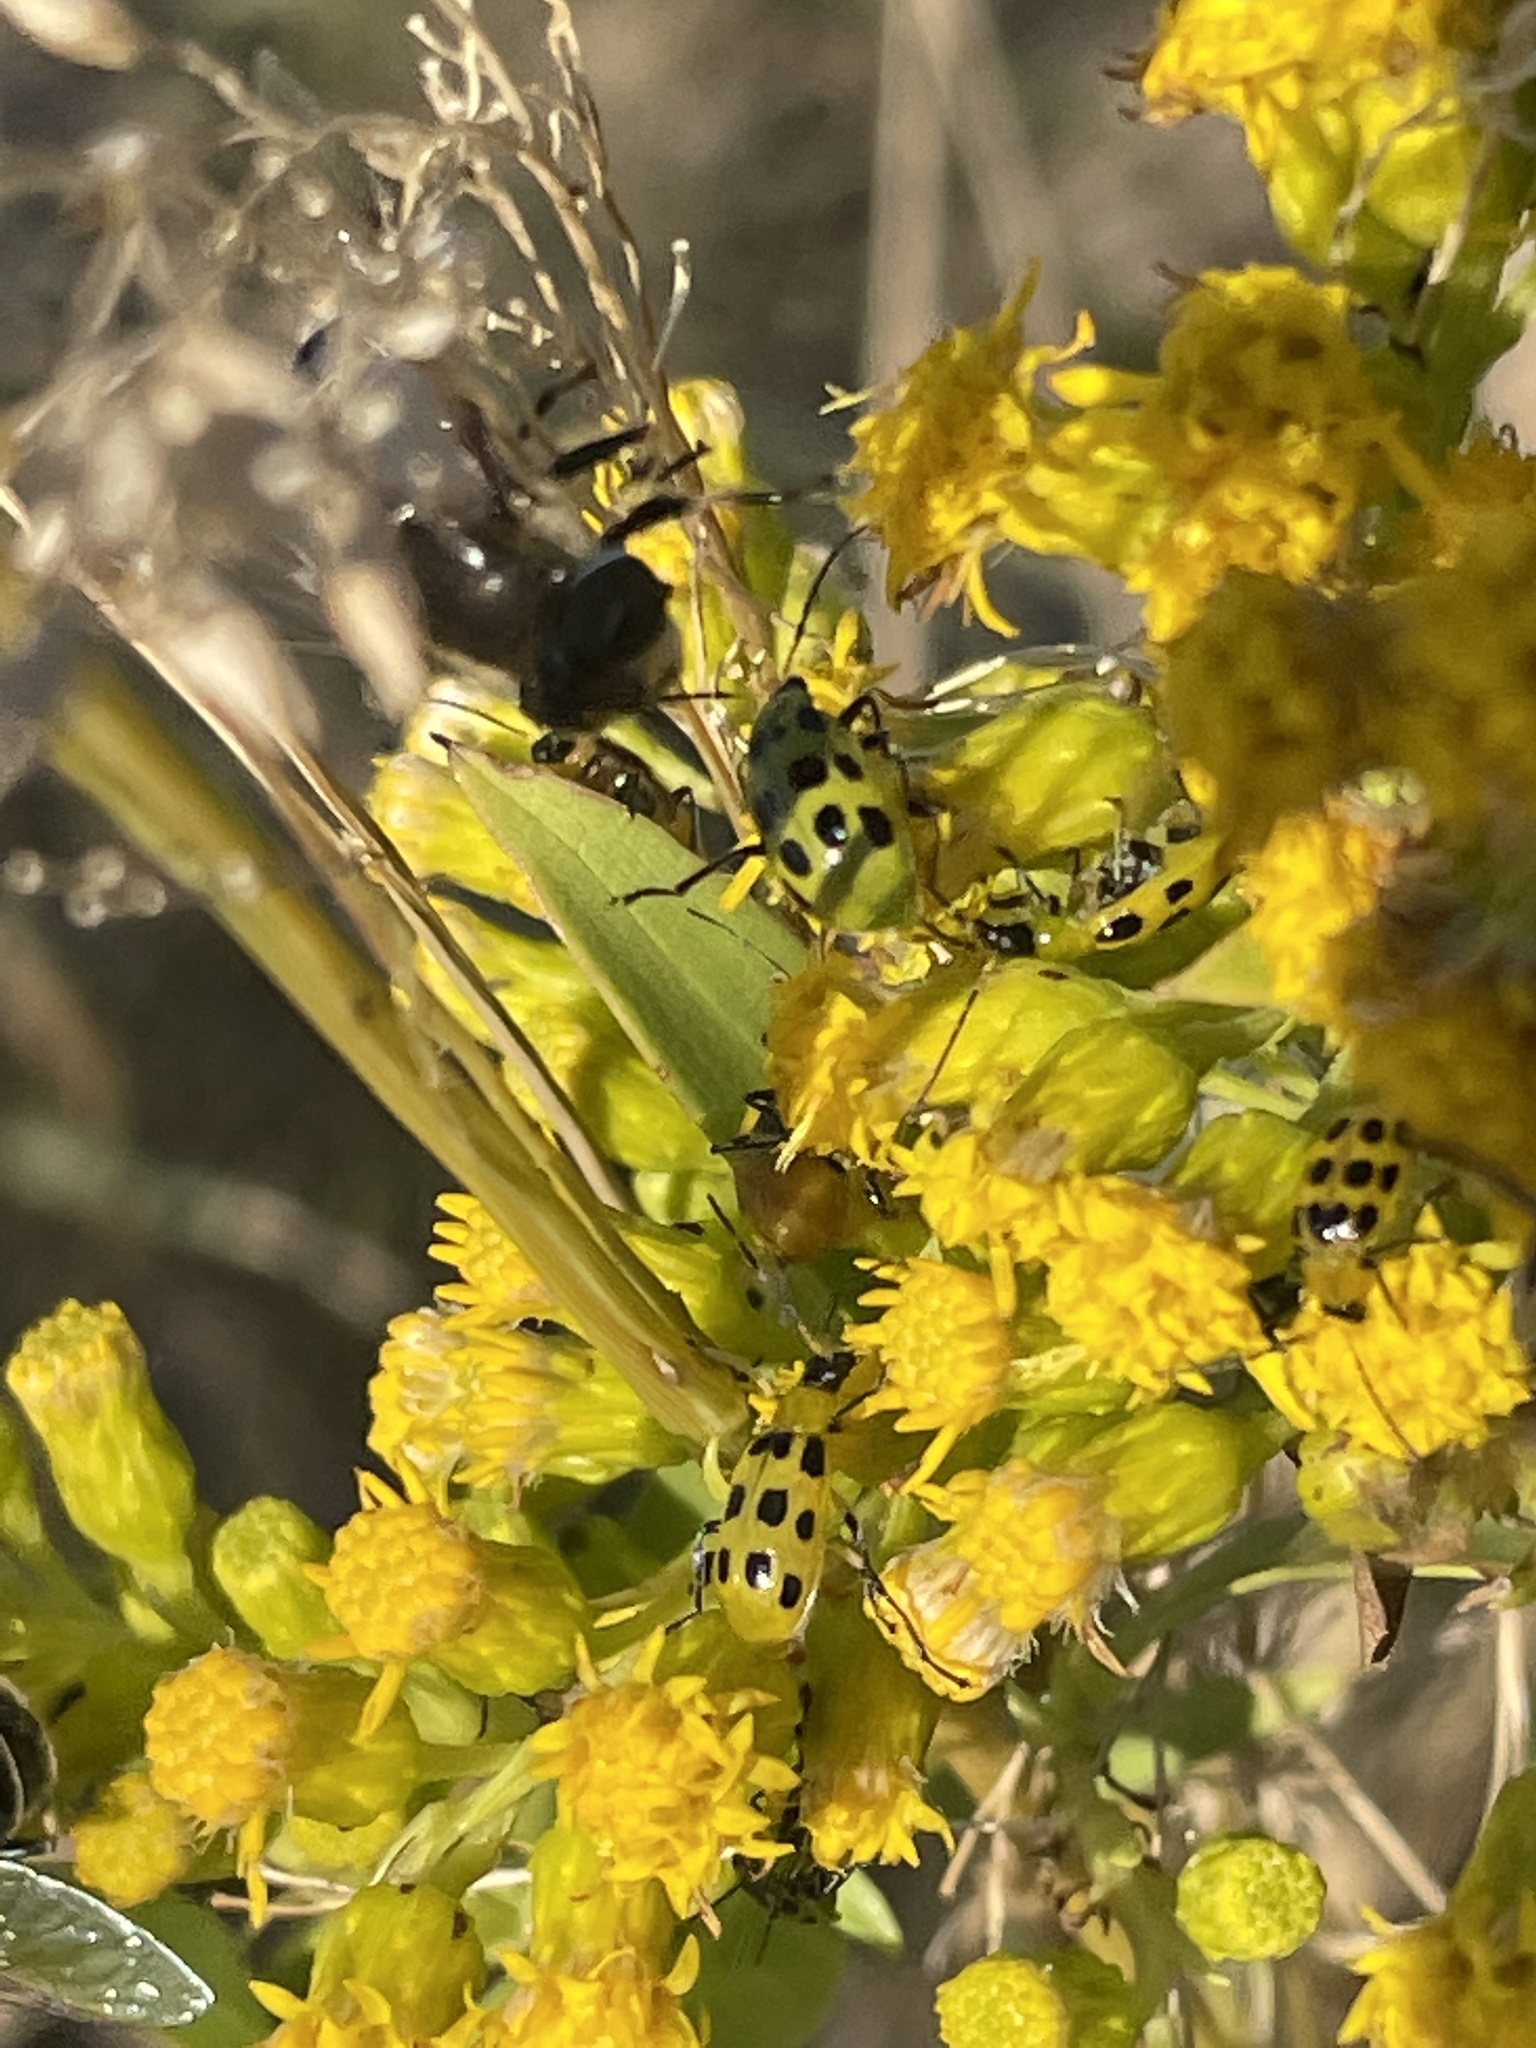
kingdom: Animalia
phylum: Arthropoda
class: Insecta
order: Coleoptera
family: Chrysomelidae
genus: Diabrotica
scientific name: Diabrotica undecimpunctata
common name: Spotted cucumber beetle
